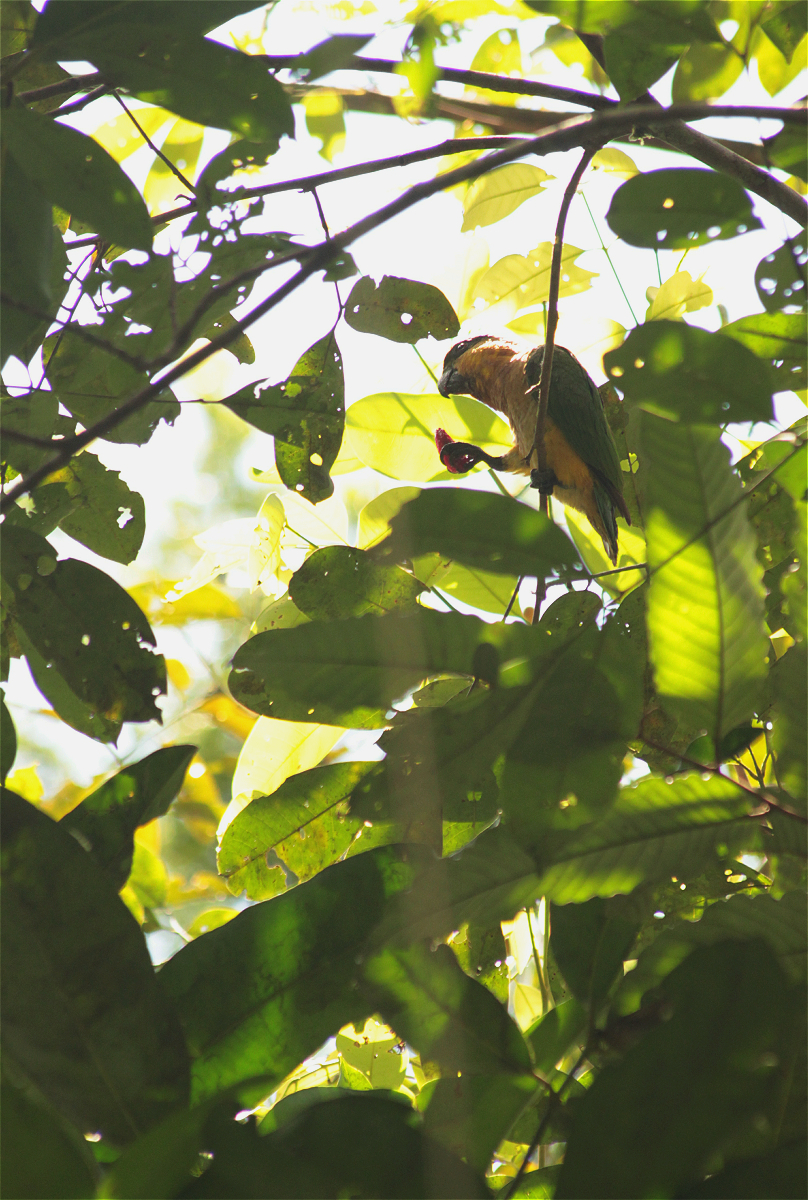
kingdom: Animalia
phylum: Chordata
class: Aves
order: Psittaciformes
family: Psittacidae
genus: Pionites
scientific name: Pionites melanocephalus
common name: Black-headed parrot
